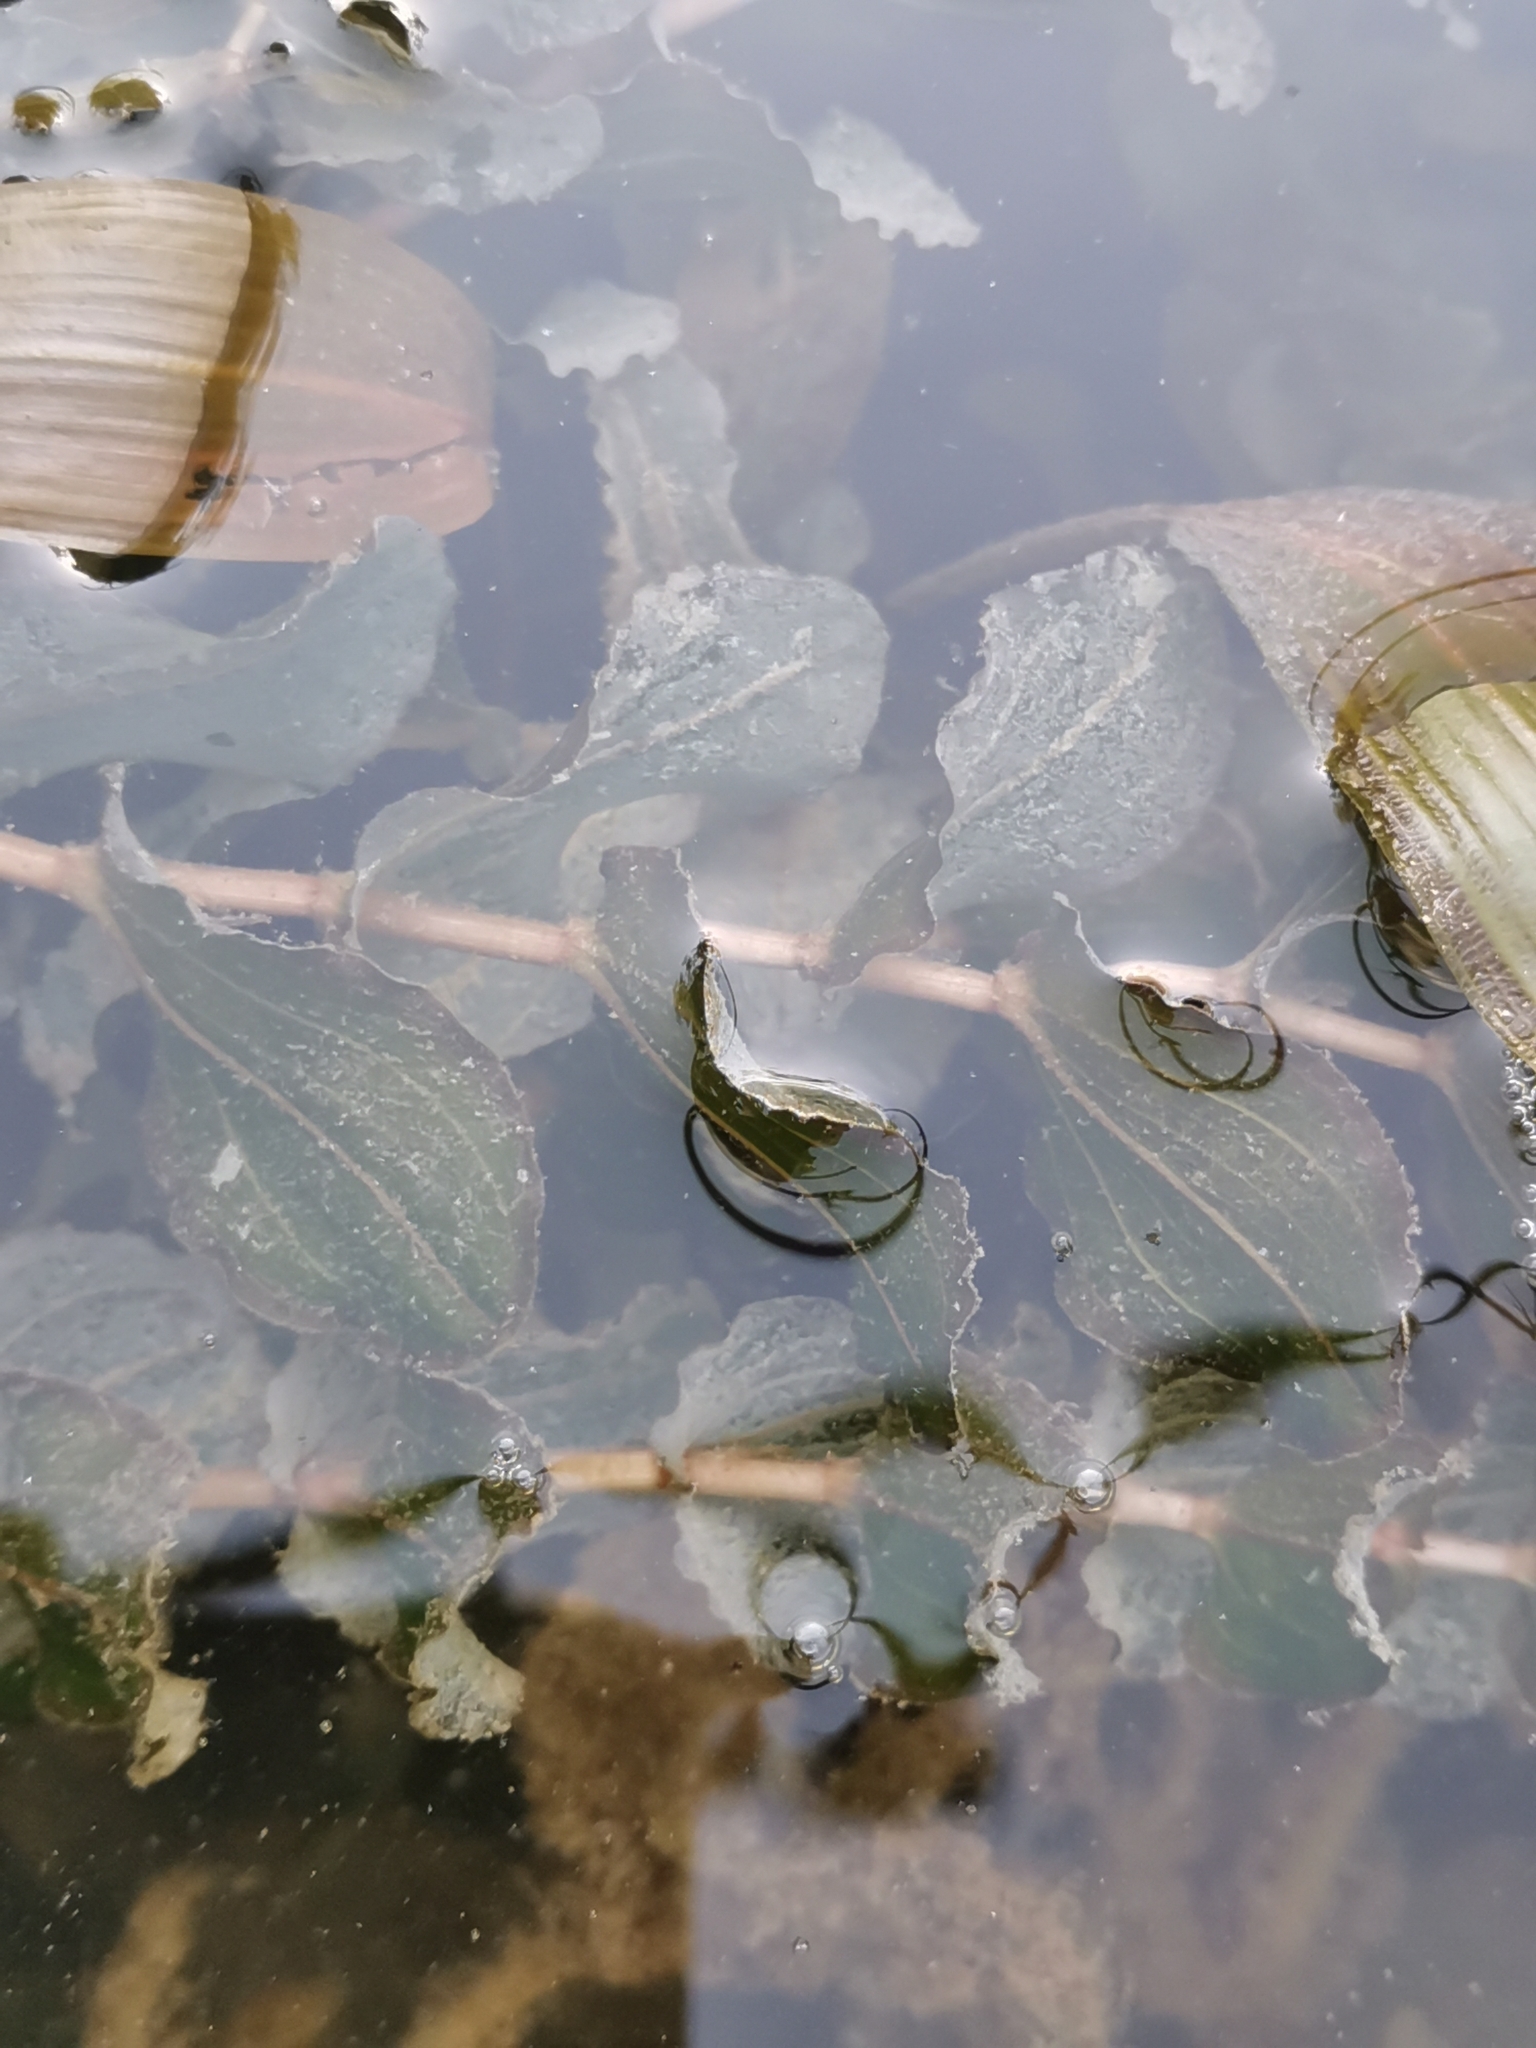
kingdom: Plantae
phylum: Tracheophyta
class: Liliopsida
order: Alismatales
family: Potamogetonaceae
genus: Potamogeton
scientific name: Potamogeton perfoliatus
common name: Perfoliate pondweed
